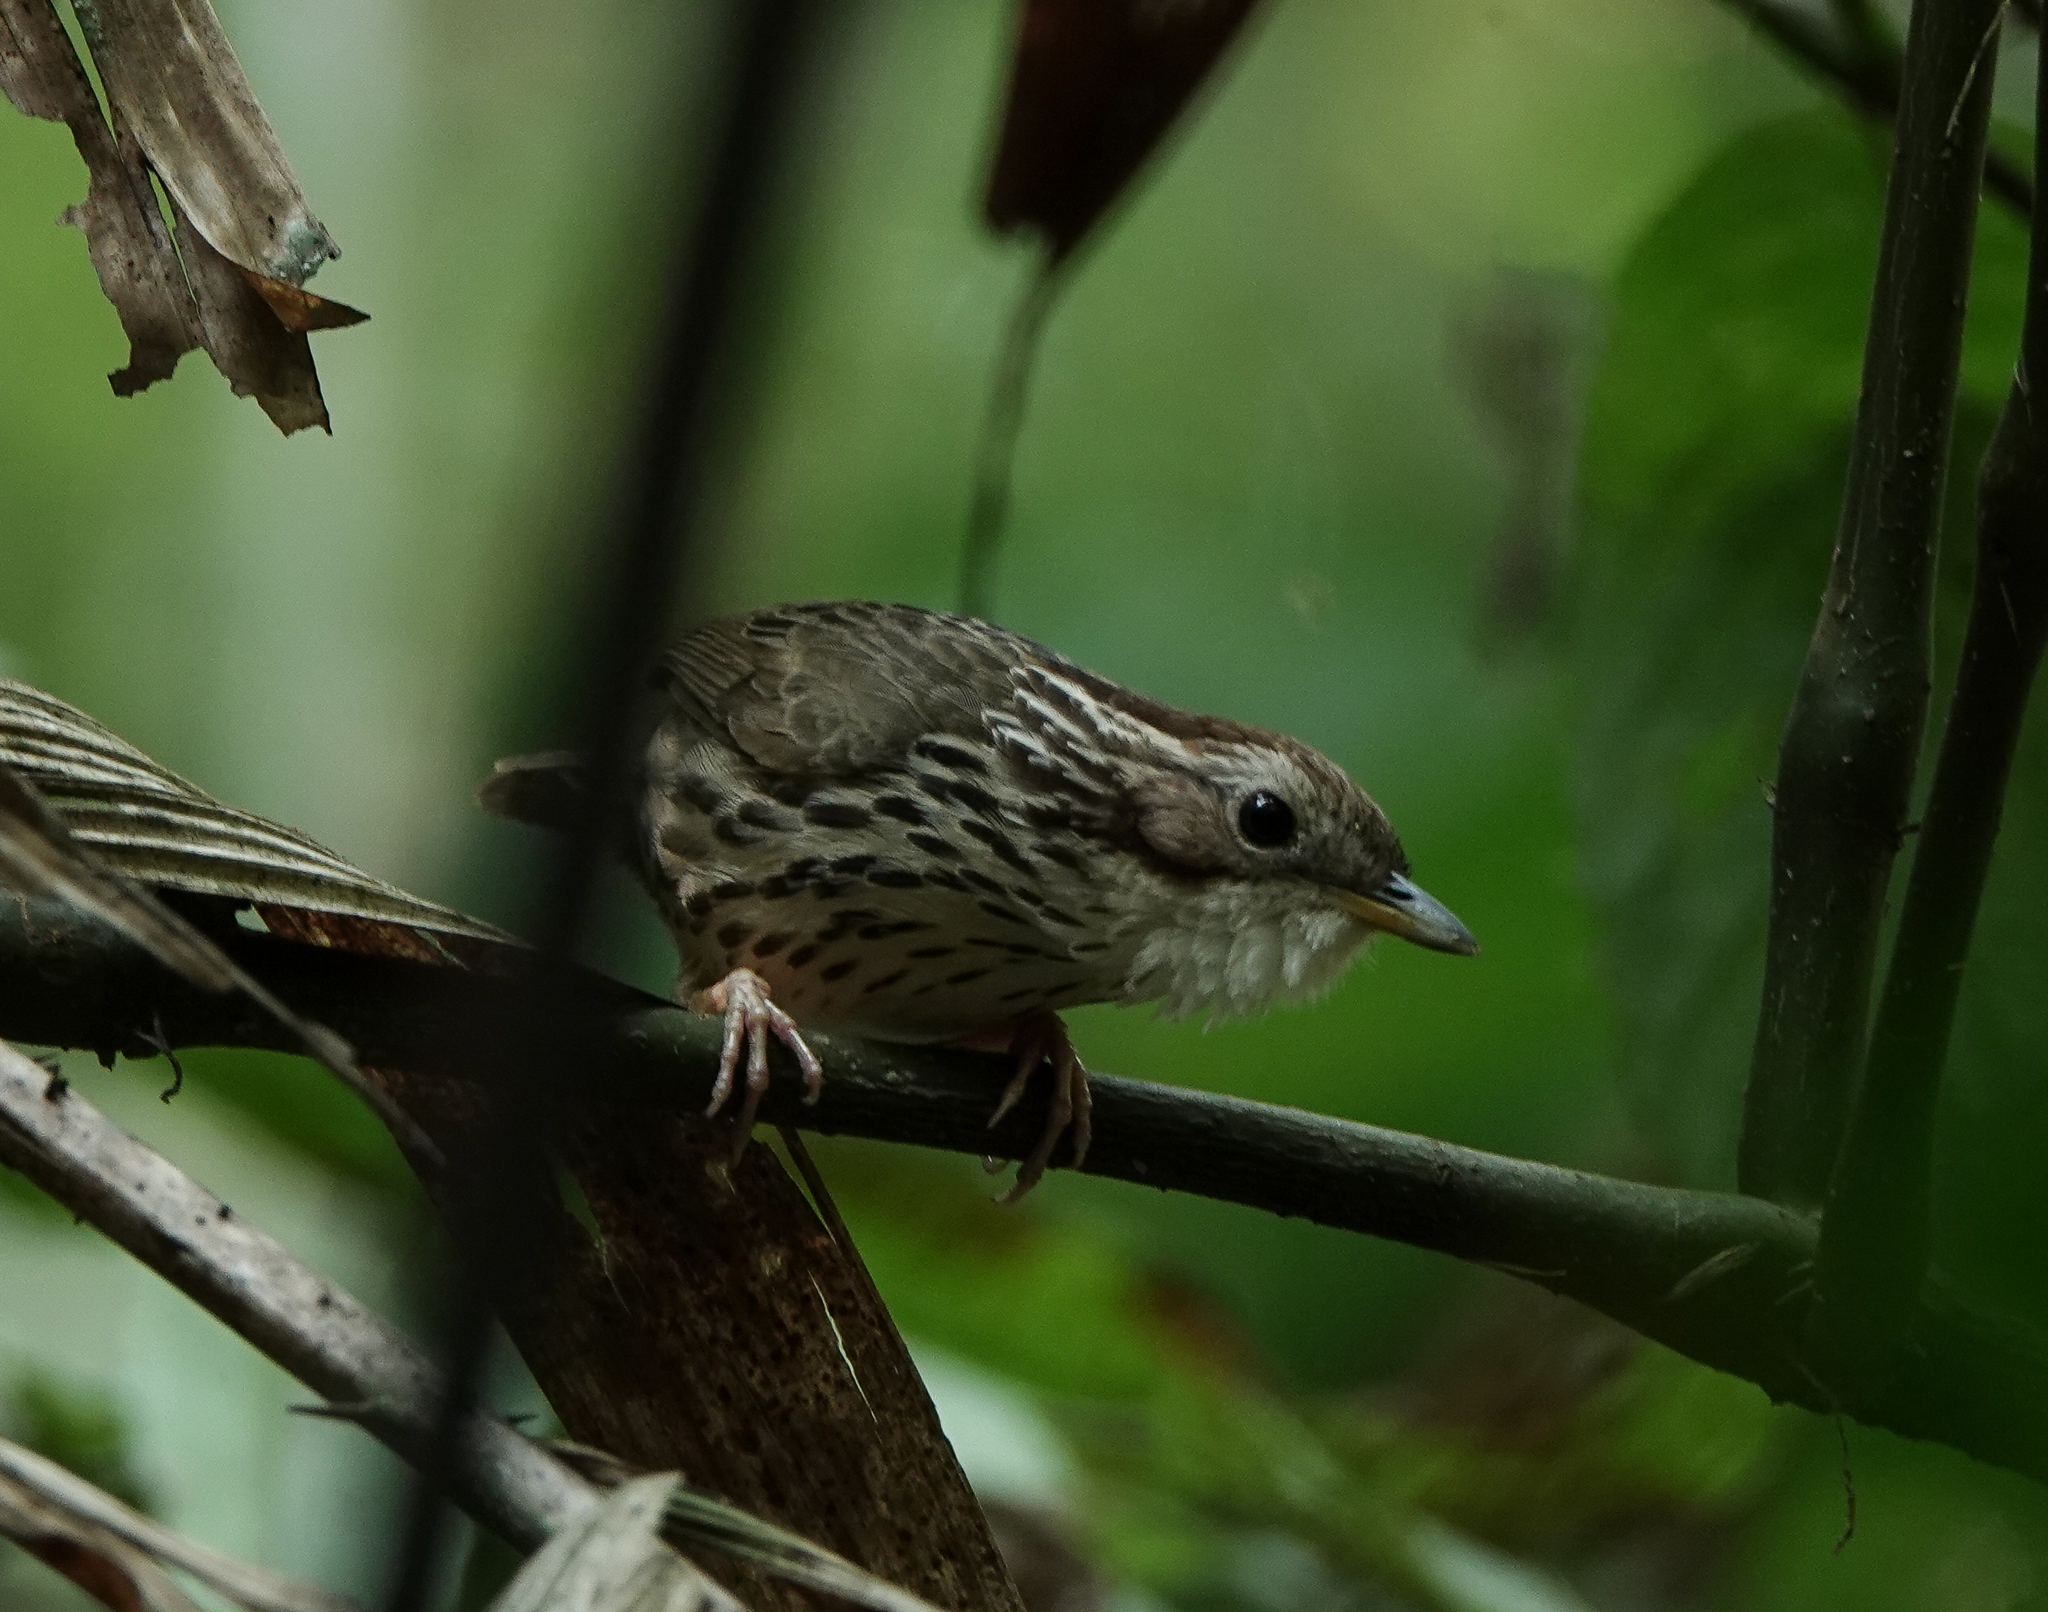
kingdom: Animalia
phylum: Chordata
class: Aves
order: Passeriformes
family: Pellorneidae
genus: Pellorneum
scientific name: Pellorneum ruficeps
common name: Puff-throated babbler
